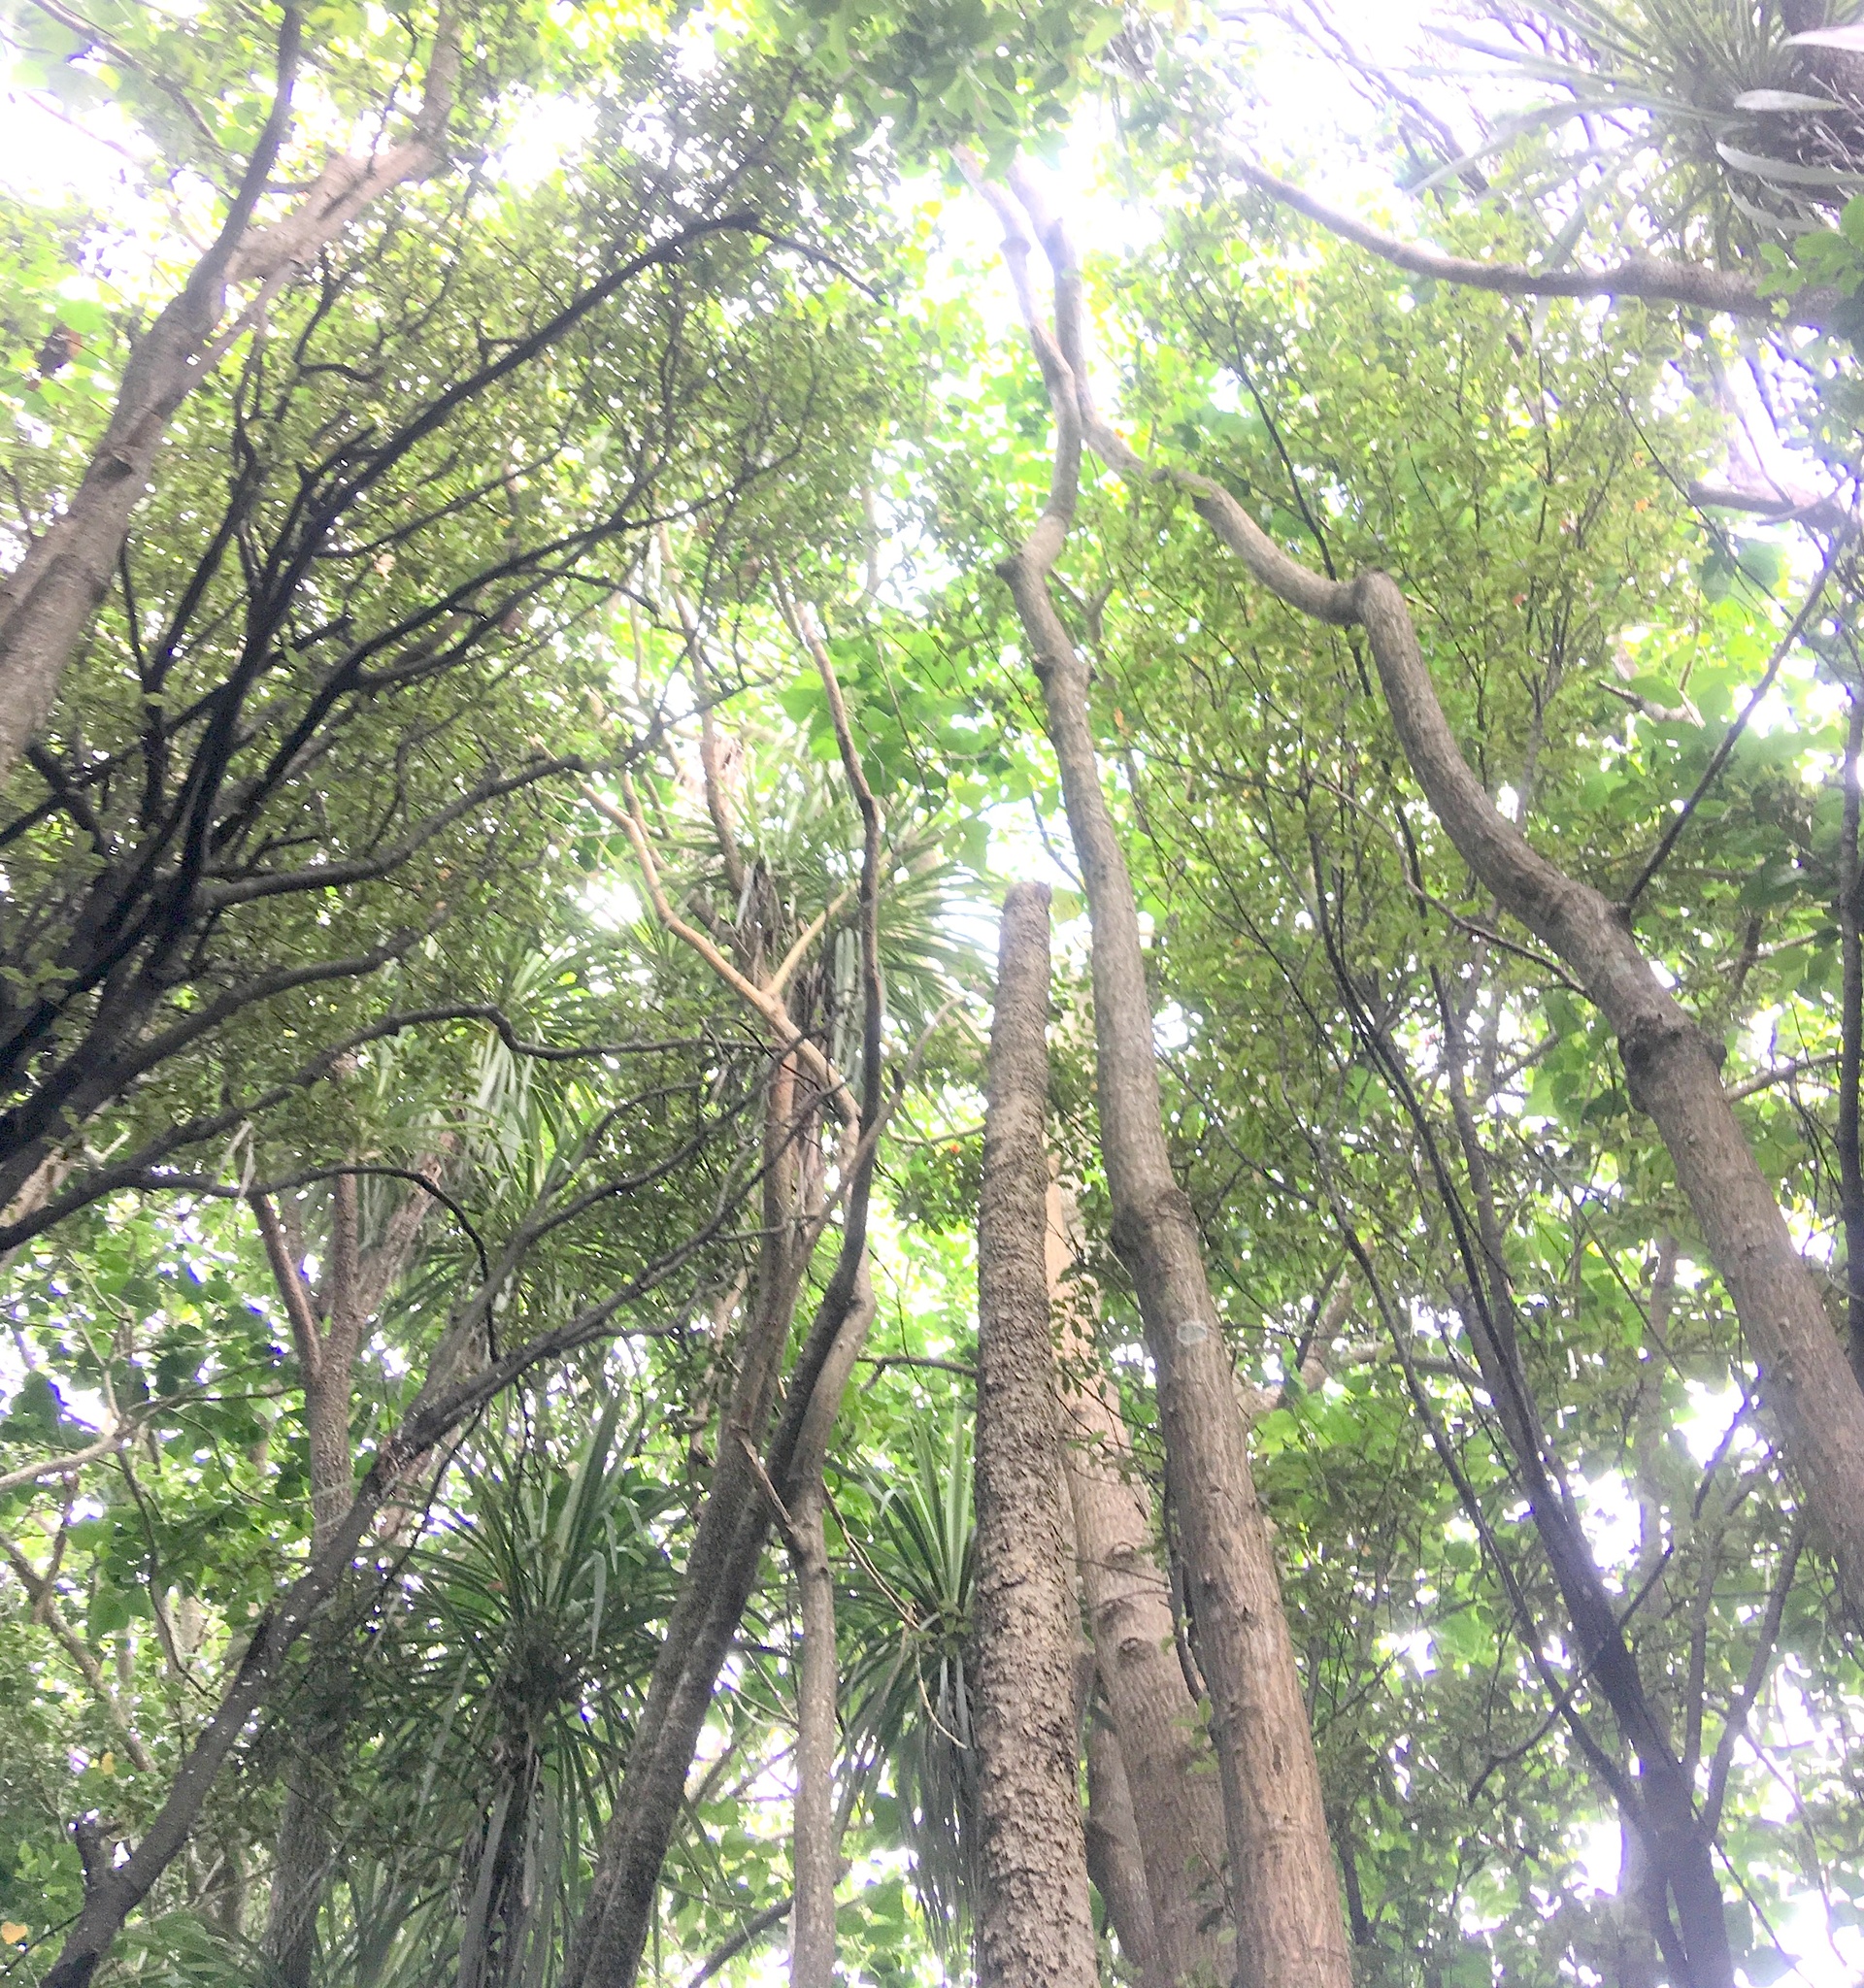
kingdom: Plantae
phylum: Tracheophyta
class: Magnoliopsida
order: Malpighiales
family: Violaceae
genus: Melicytus
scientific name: Melicytus ramiflorus
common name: Mahoe
